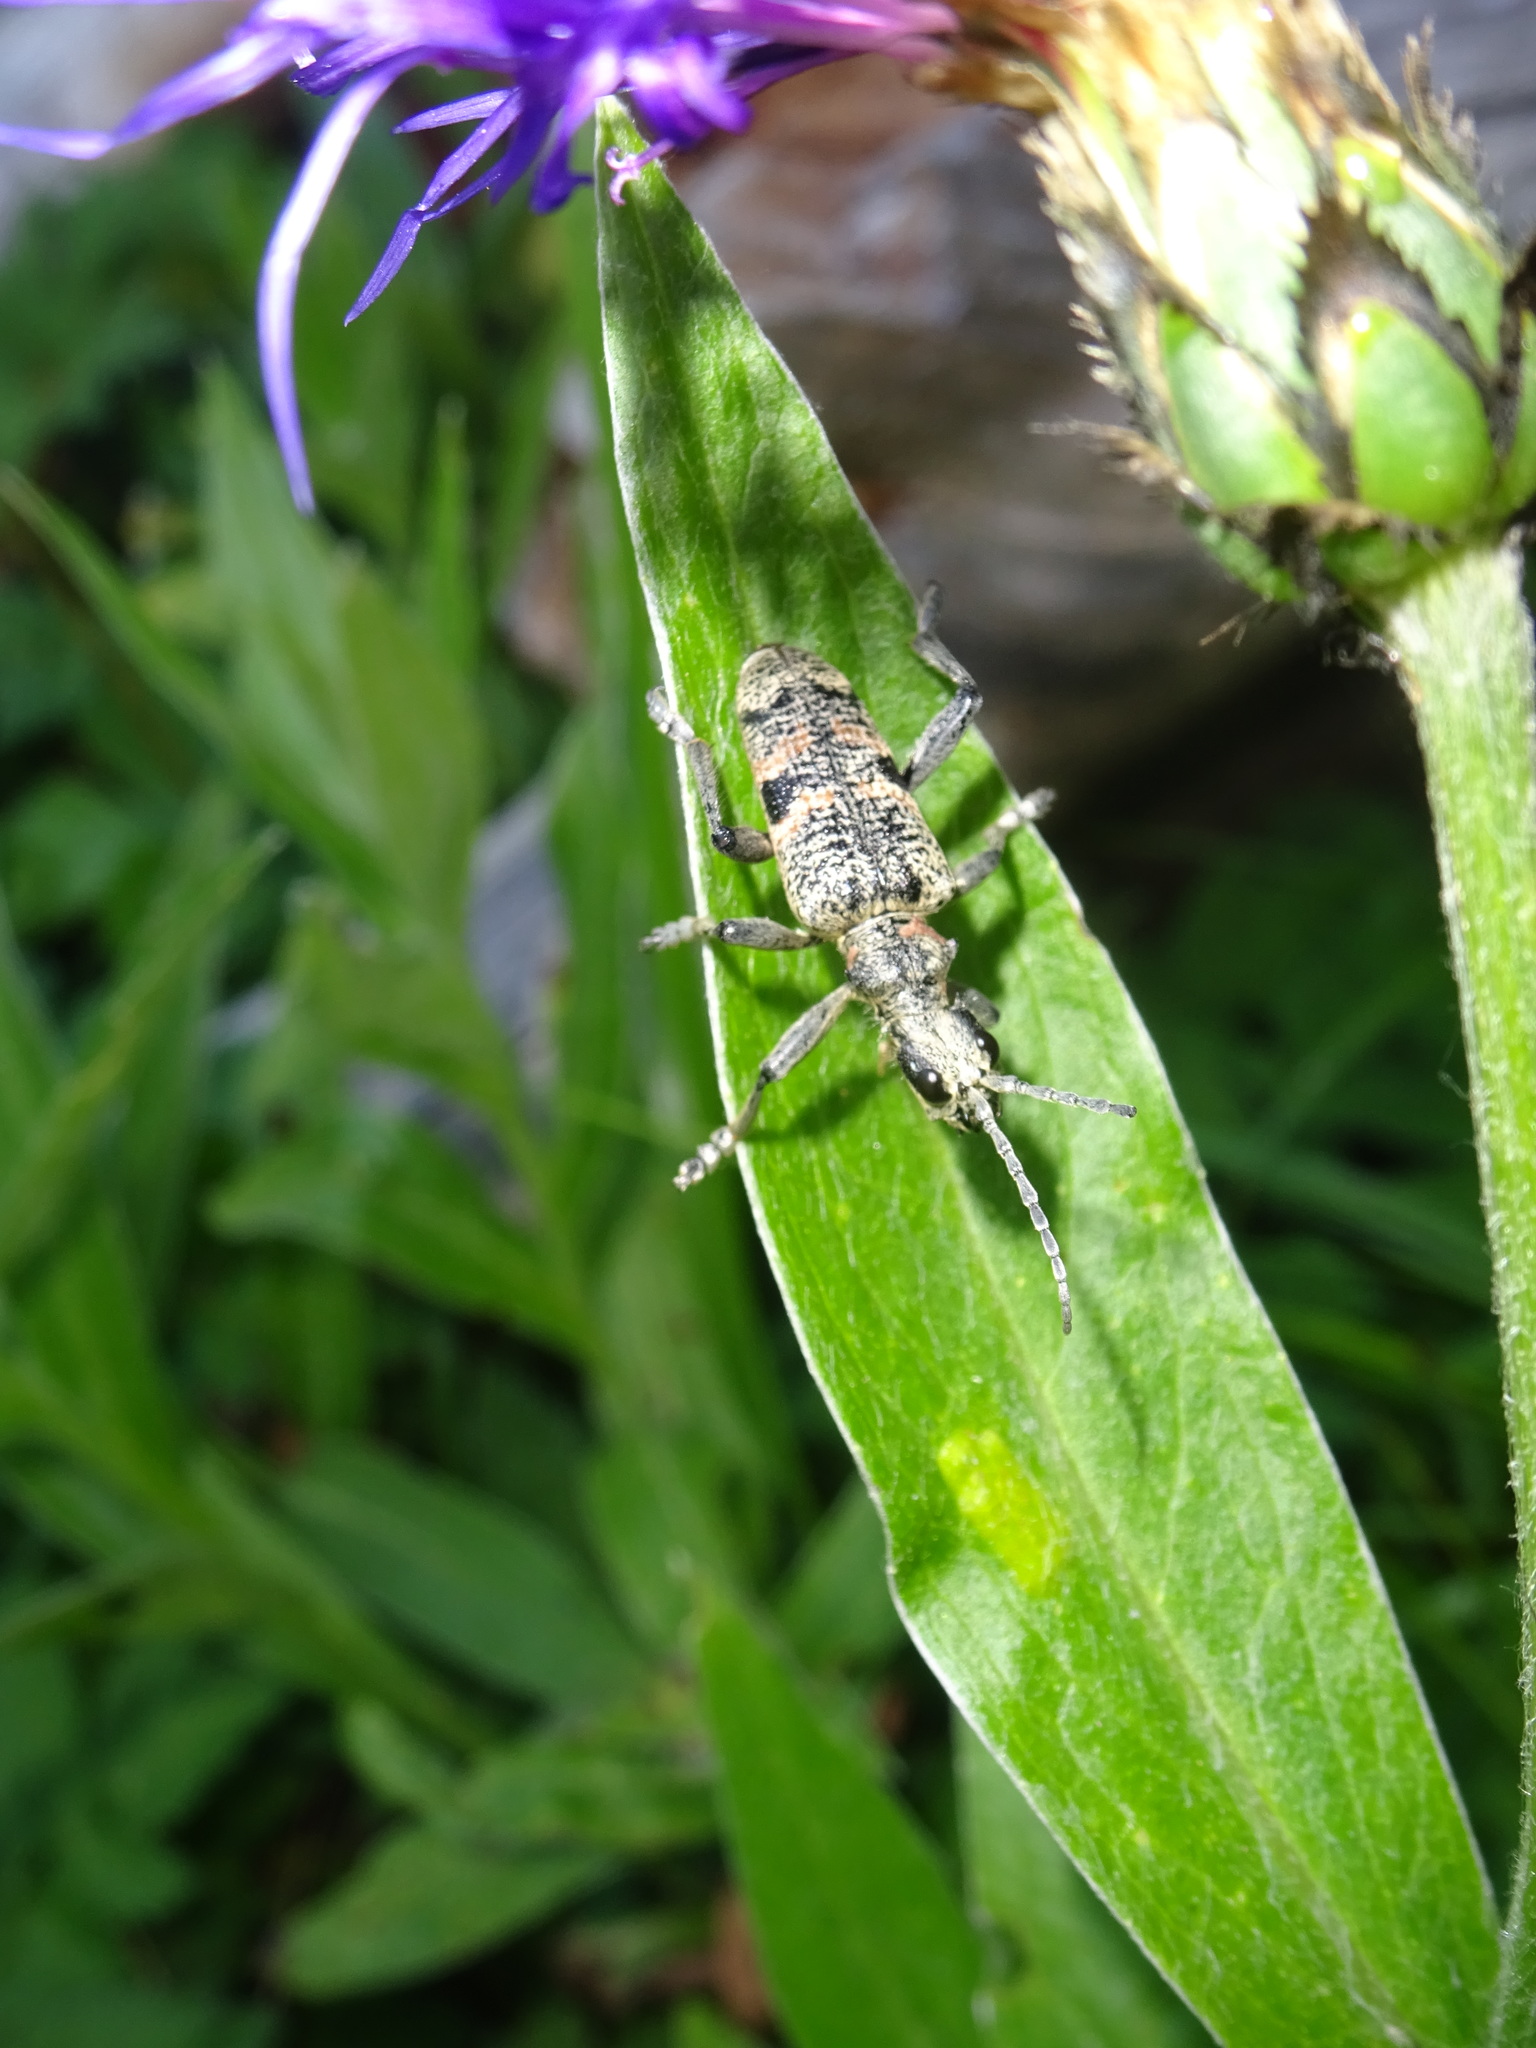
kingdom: Animalia
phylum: Arthropoda
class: Insecta
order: Coleoptera
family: Cerambycidae
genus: Rhagium
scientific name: Rhagium mordax
